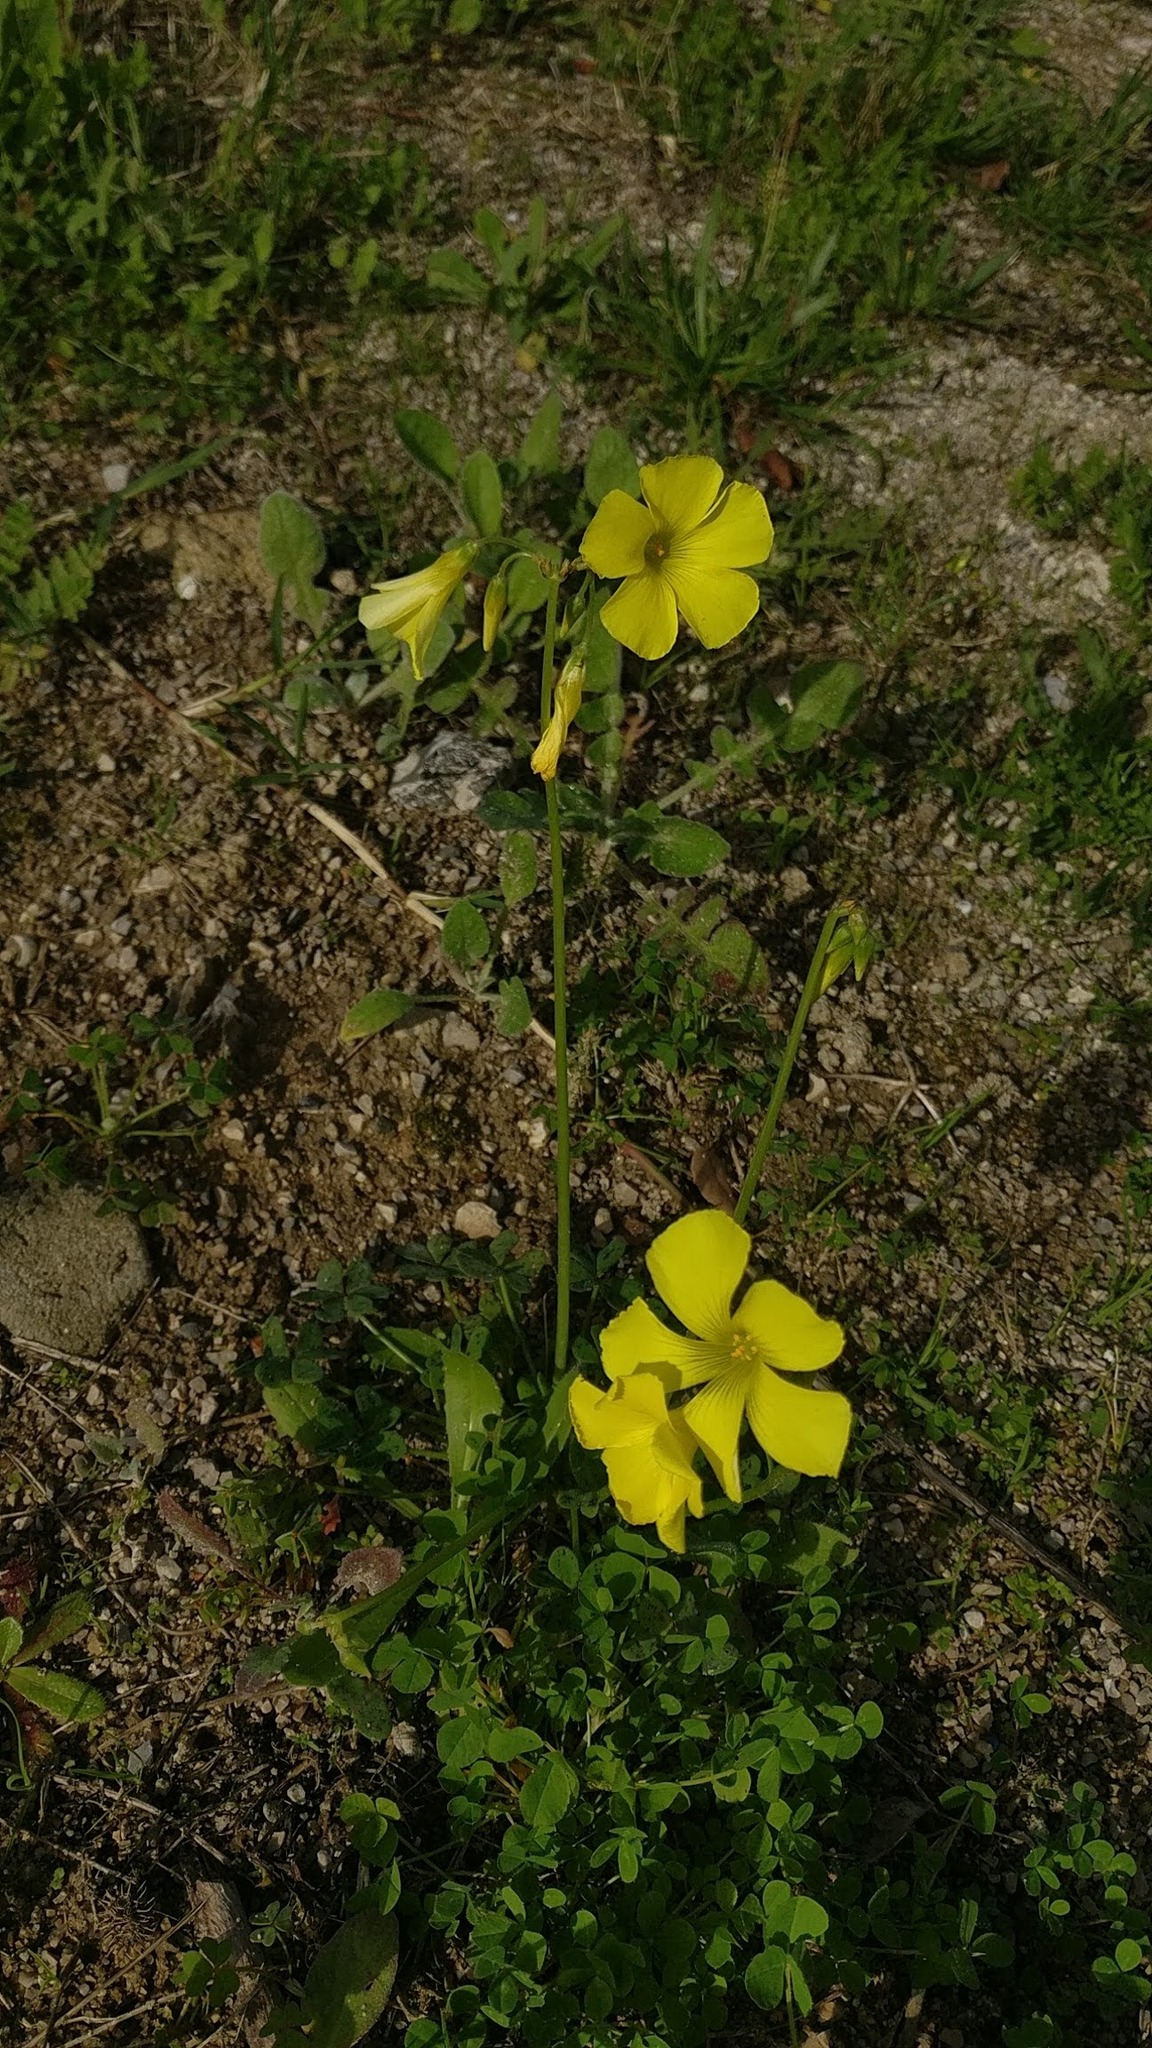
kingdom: Plantae
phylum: Tracheophyta
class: Magnoliopsida
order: Oxalidales
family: Oxalidaceae
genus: Oxalis
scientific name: Oxalis pes-caprae
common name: Bermuda-buttercup
